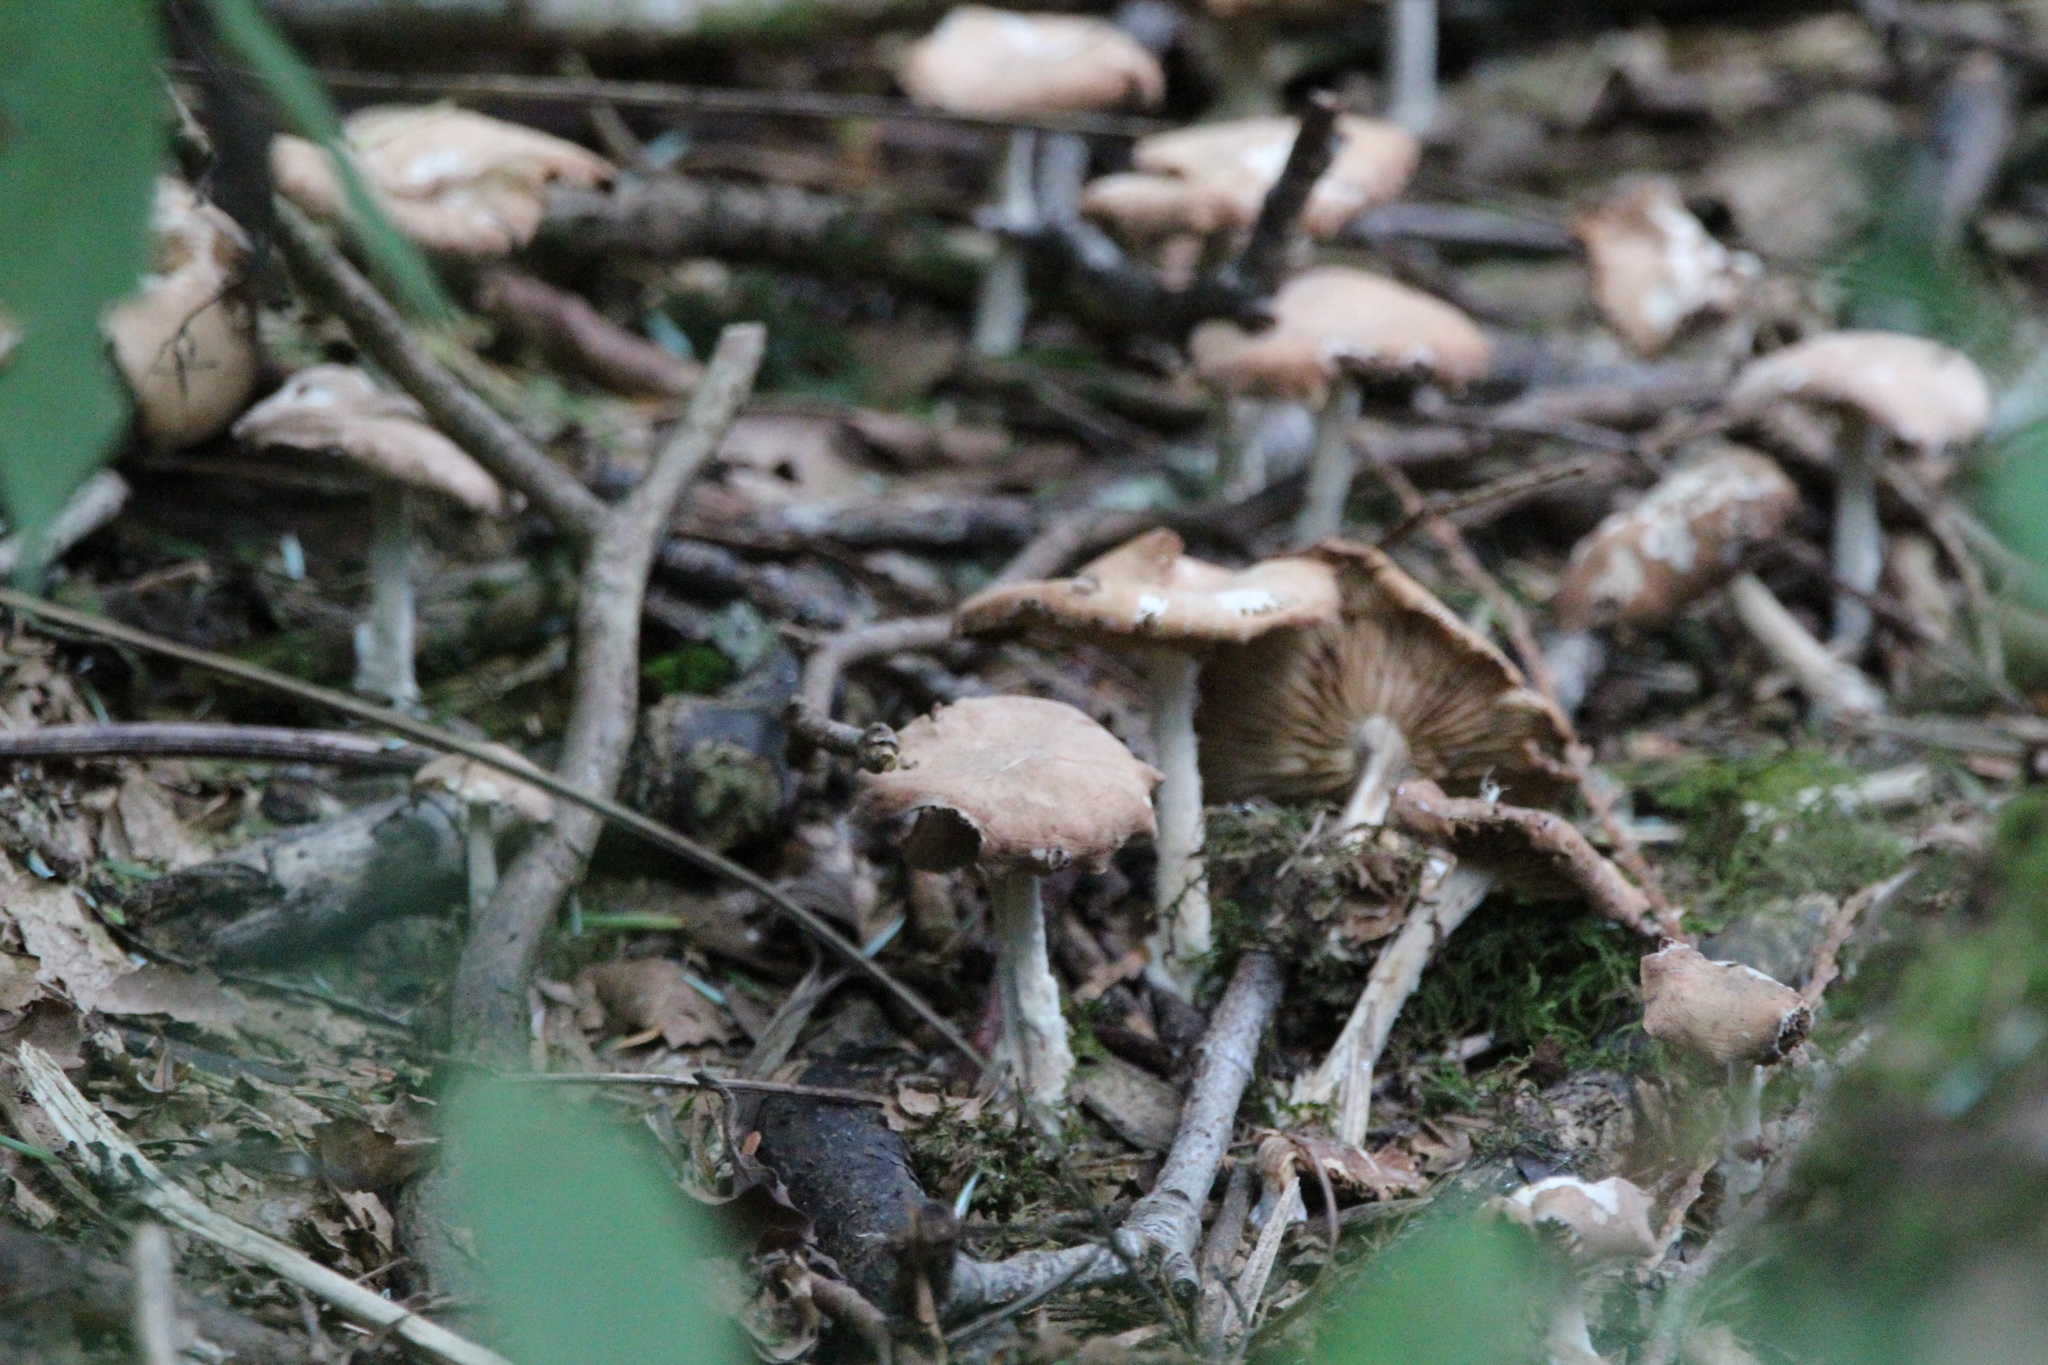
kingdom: Fungi
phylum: Basidiomycota
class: Agaricomycetes
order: Agaricales
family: Omphalotaceae
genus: Collybiopsis
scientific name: Collybiopsis peronata
